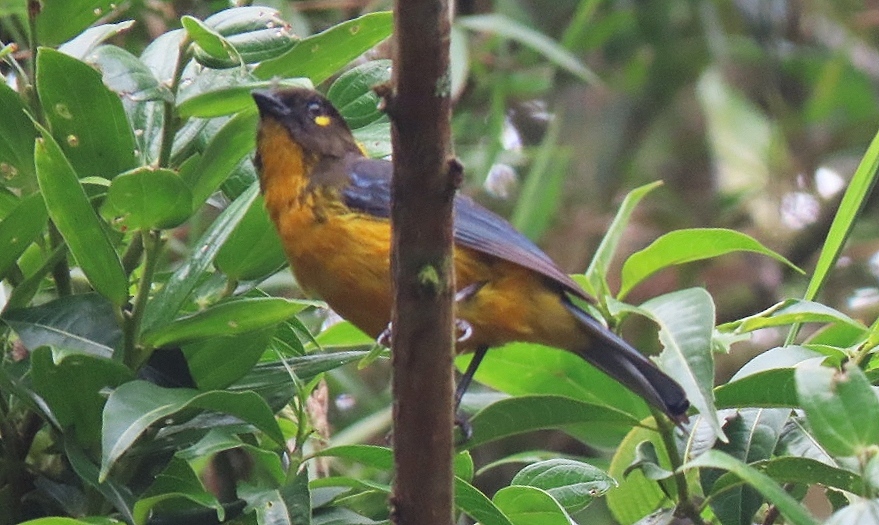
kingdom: Animalia
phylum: Chordata
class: Aves
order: Passeriformes
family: Thraupidae
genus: Anisognathus
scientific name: Anisognathus lacrymosus
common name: Lacrimose mountain-tanager
